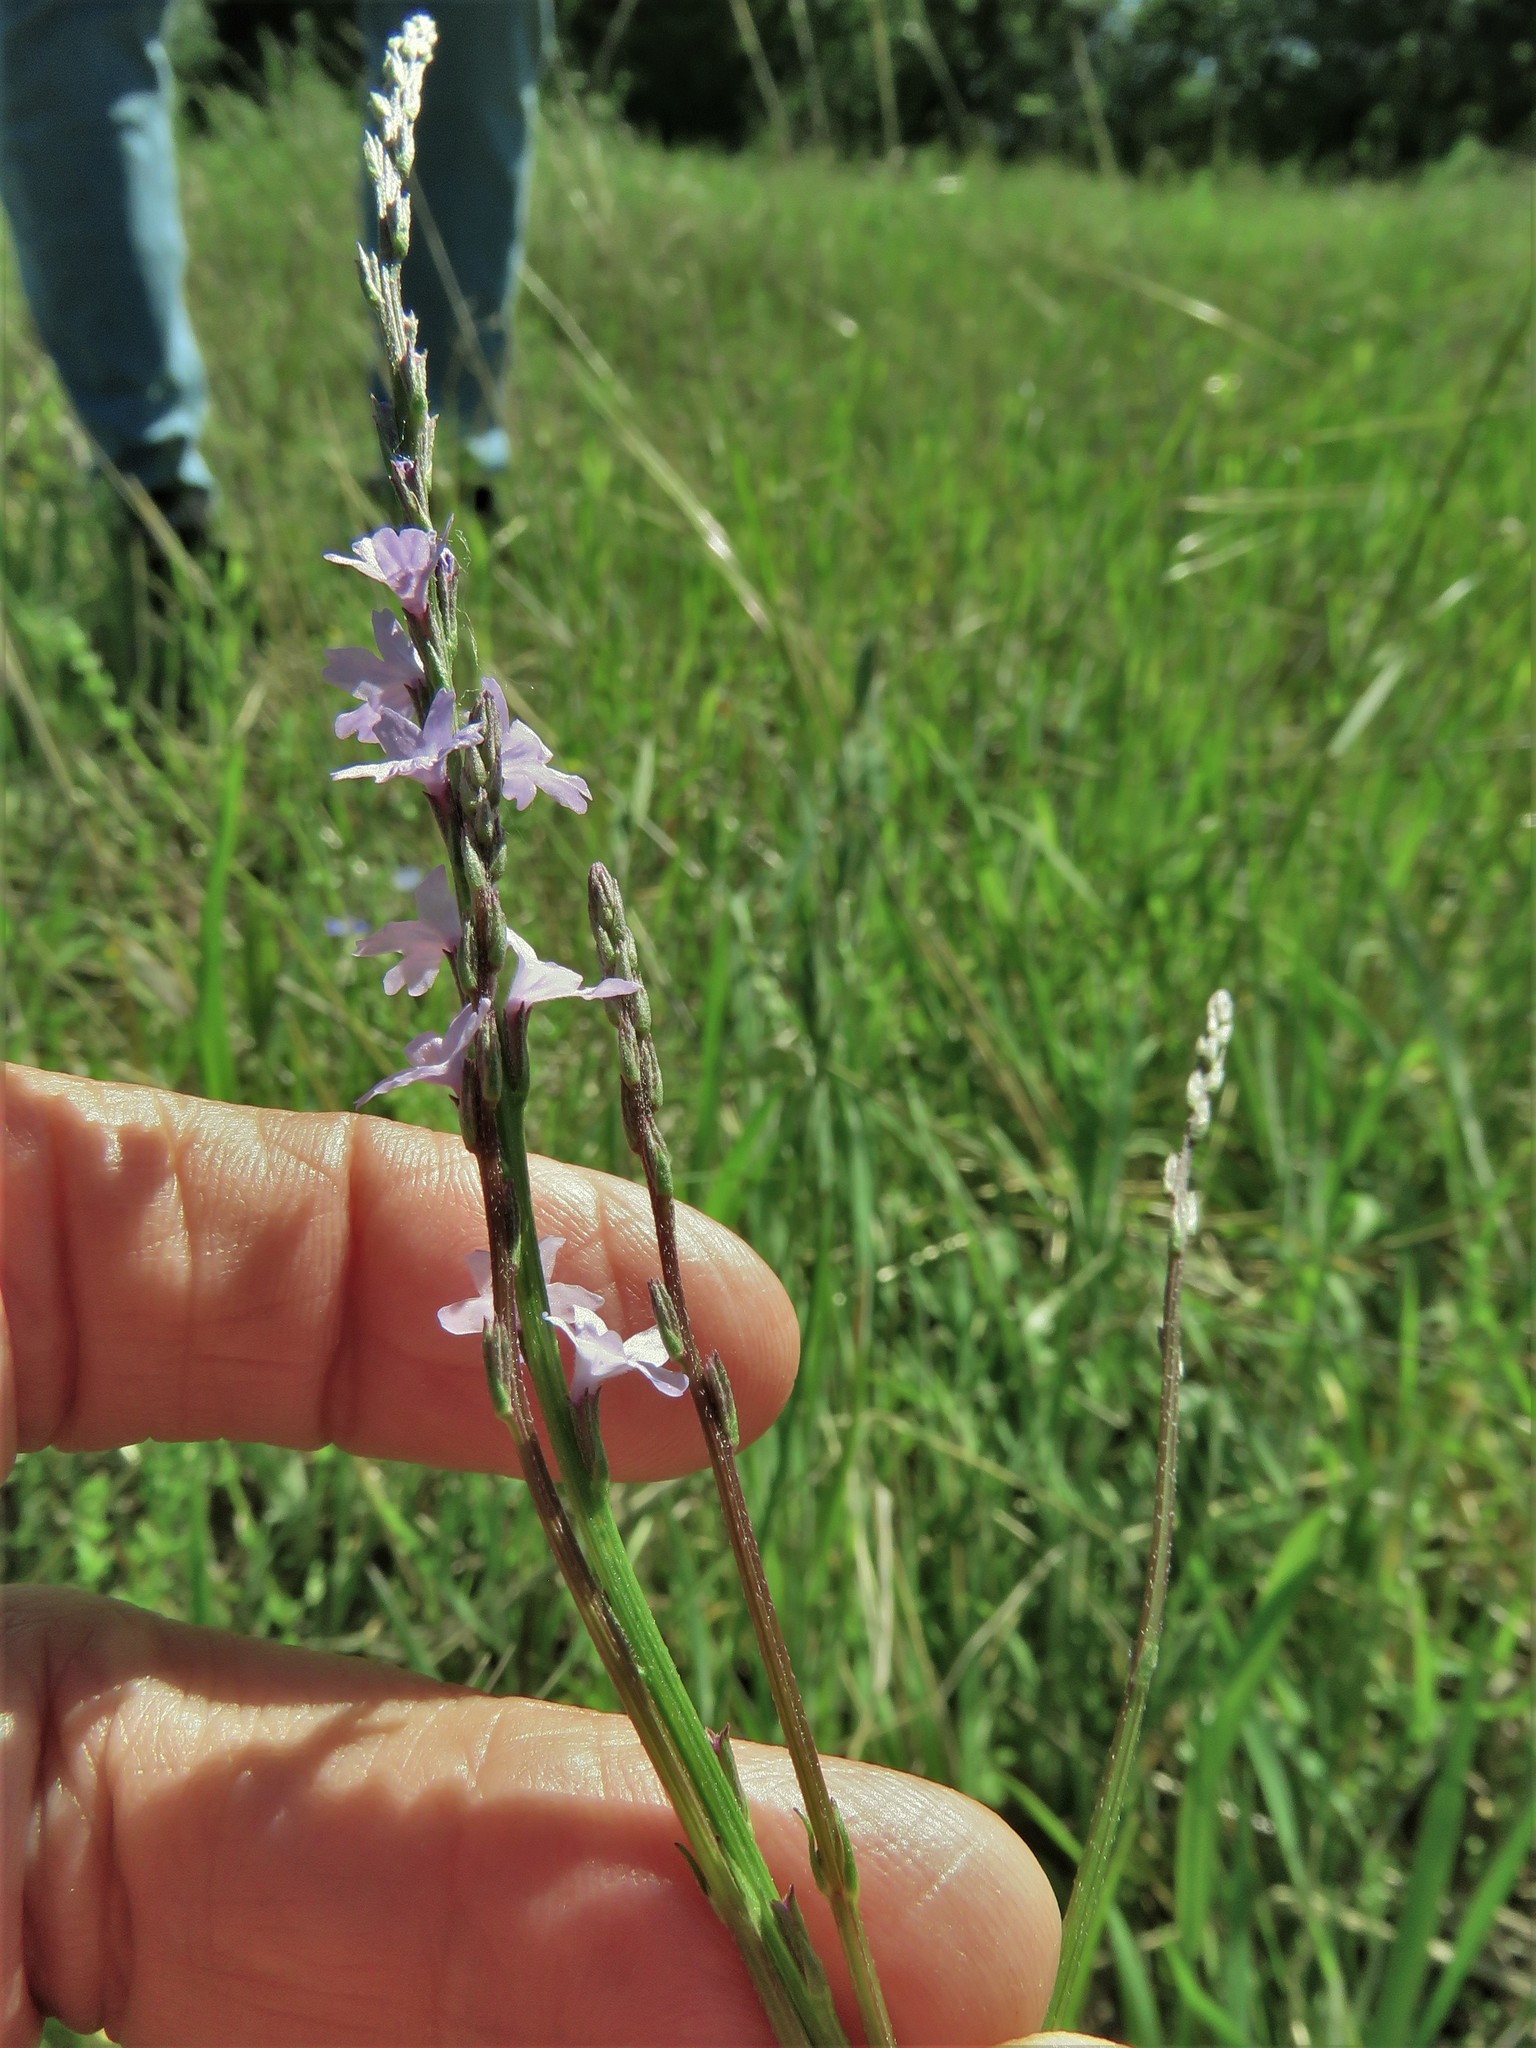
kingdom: Plantae
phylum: Tracheophyta
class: Magnoliopsida
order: Lamiales
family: Verbenaceae
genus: Verbena
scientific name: Verbena halei
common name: Texas vervain
